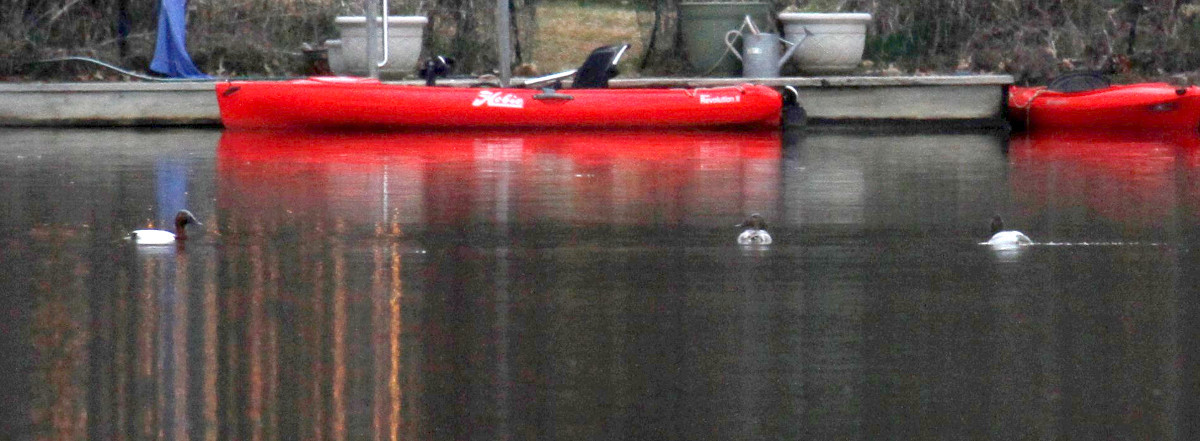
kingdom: Animalia
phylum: Chordata
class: Aves
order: Anseriformes
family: Anatidae
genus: Aythya
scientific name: Aythya valisineria
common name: Canvasback
